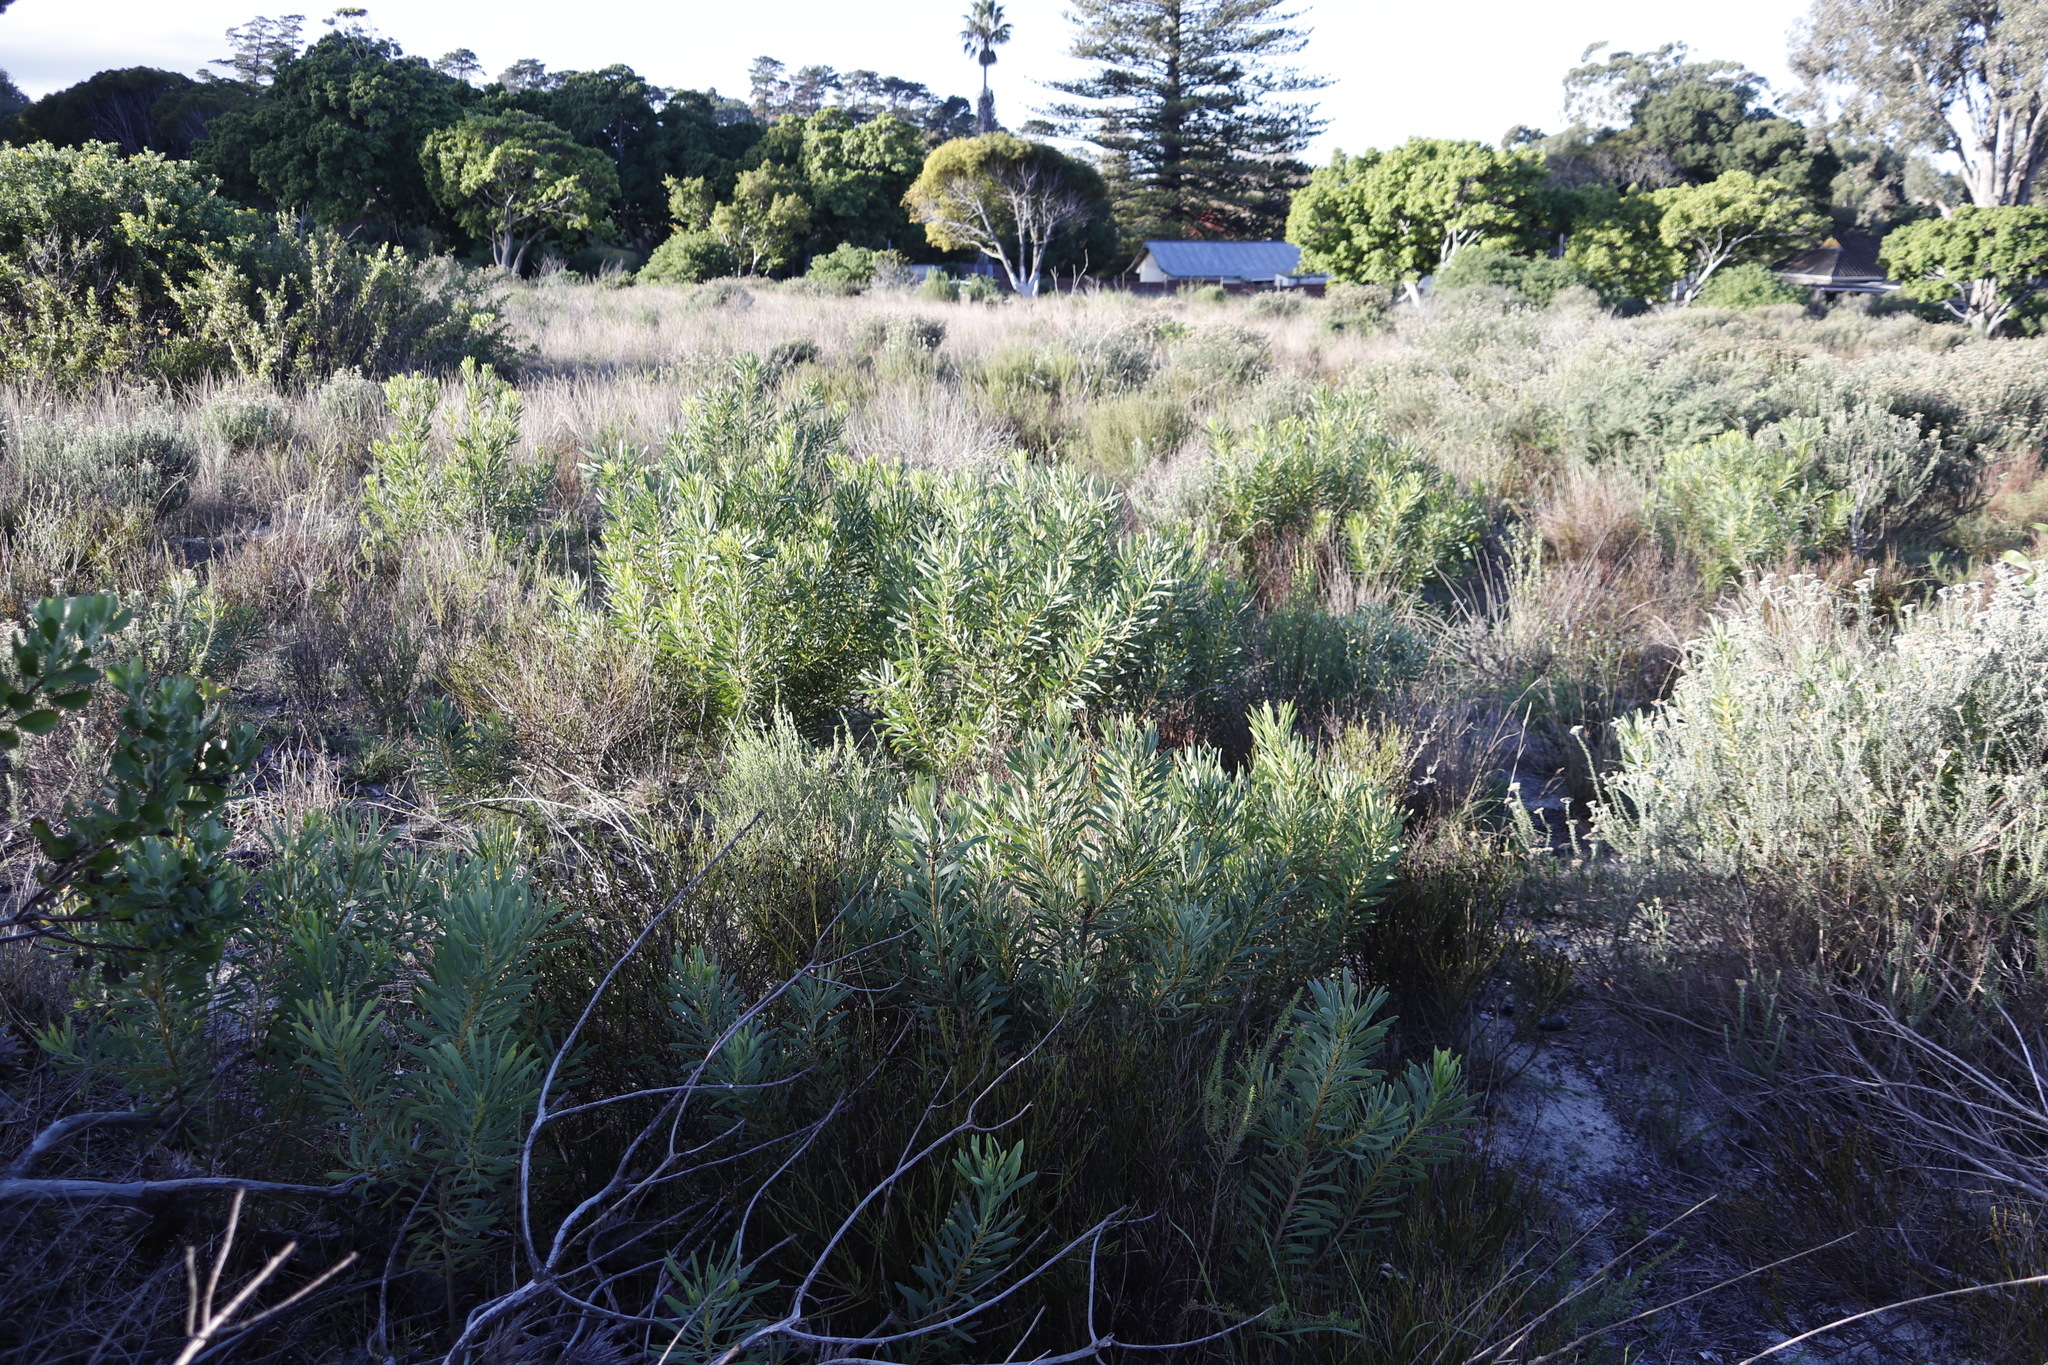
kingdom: Plantae
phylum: Tracheophyta
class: Magnoliopsida
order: Proteales
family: Proteaceae
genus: Protea
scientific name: Protea repens
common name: Sugarbush
